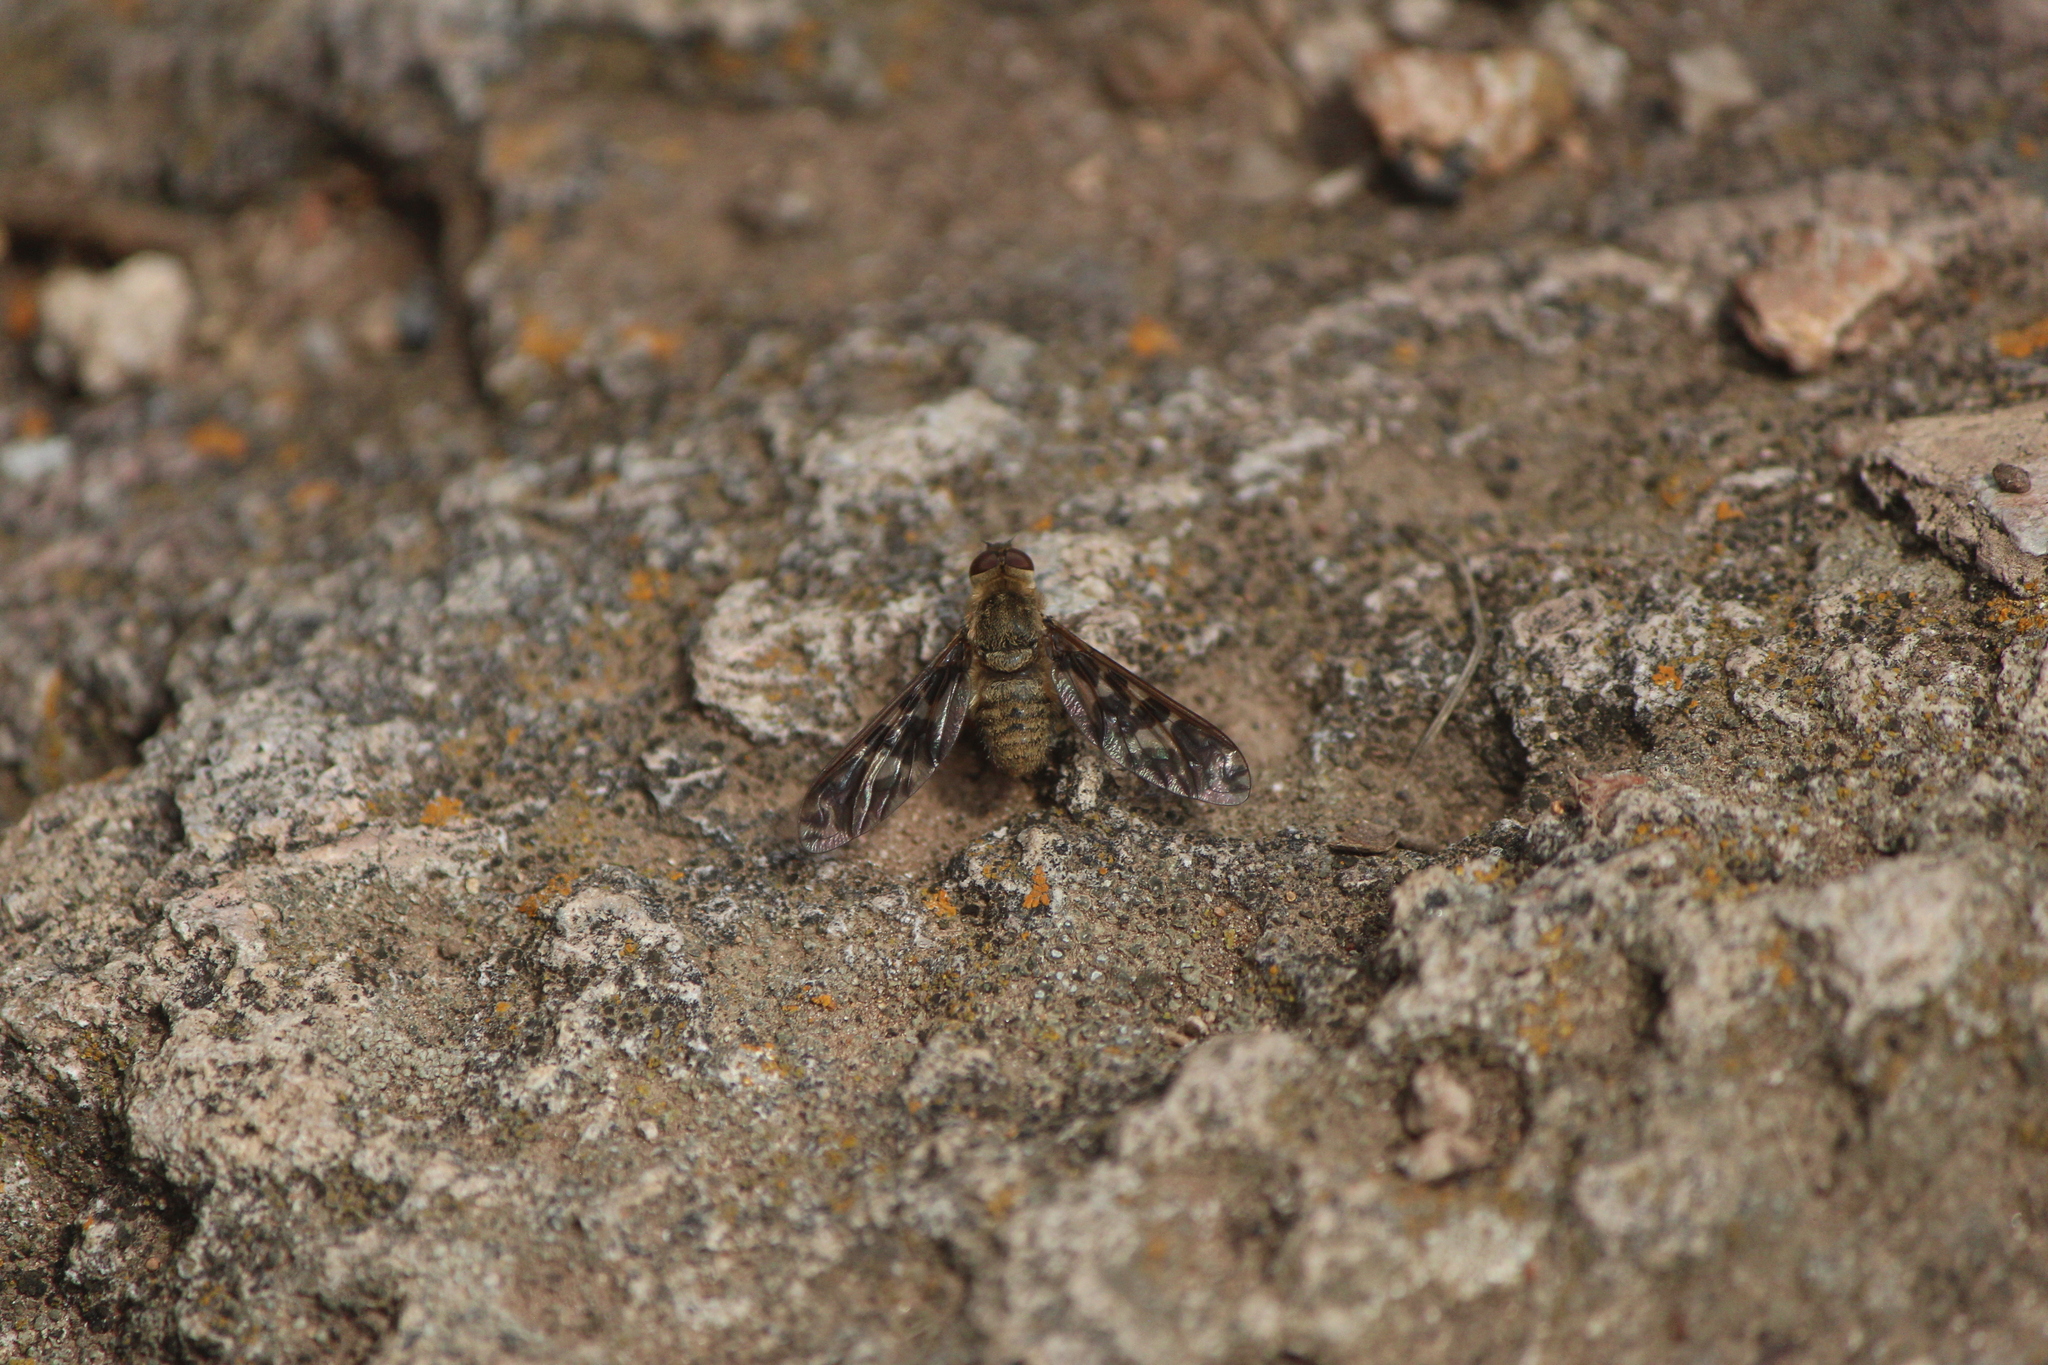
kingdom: Animalia
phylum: Arthropoda
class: Insecta
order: Diptera
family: Bombyliidae
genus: Dipalta
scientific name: Dipalta serpentina
